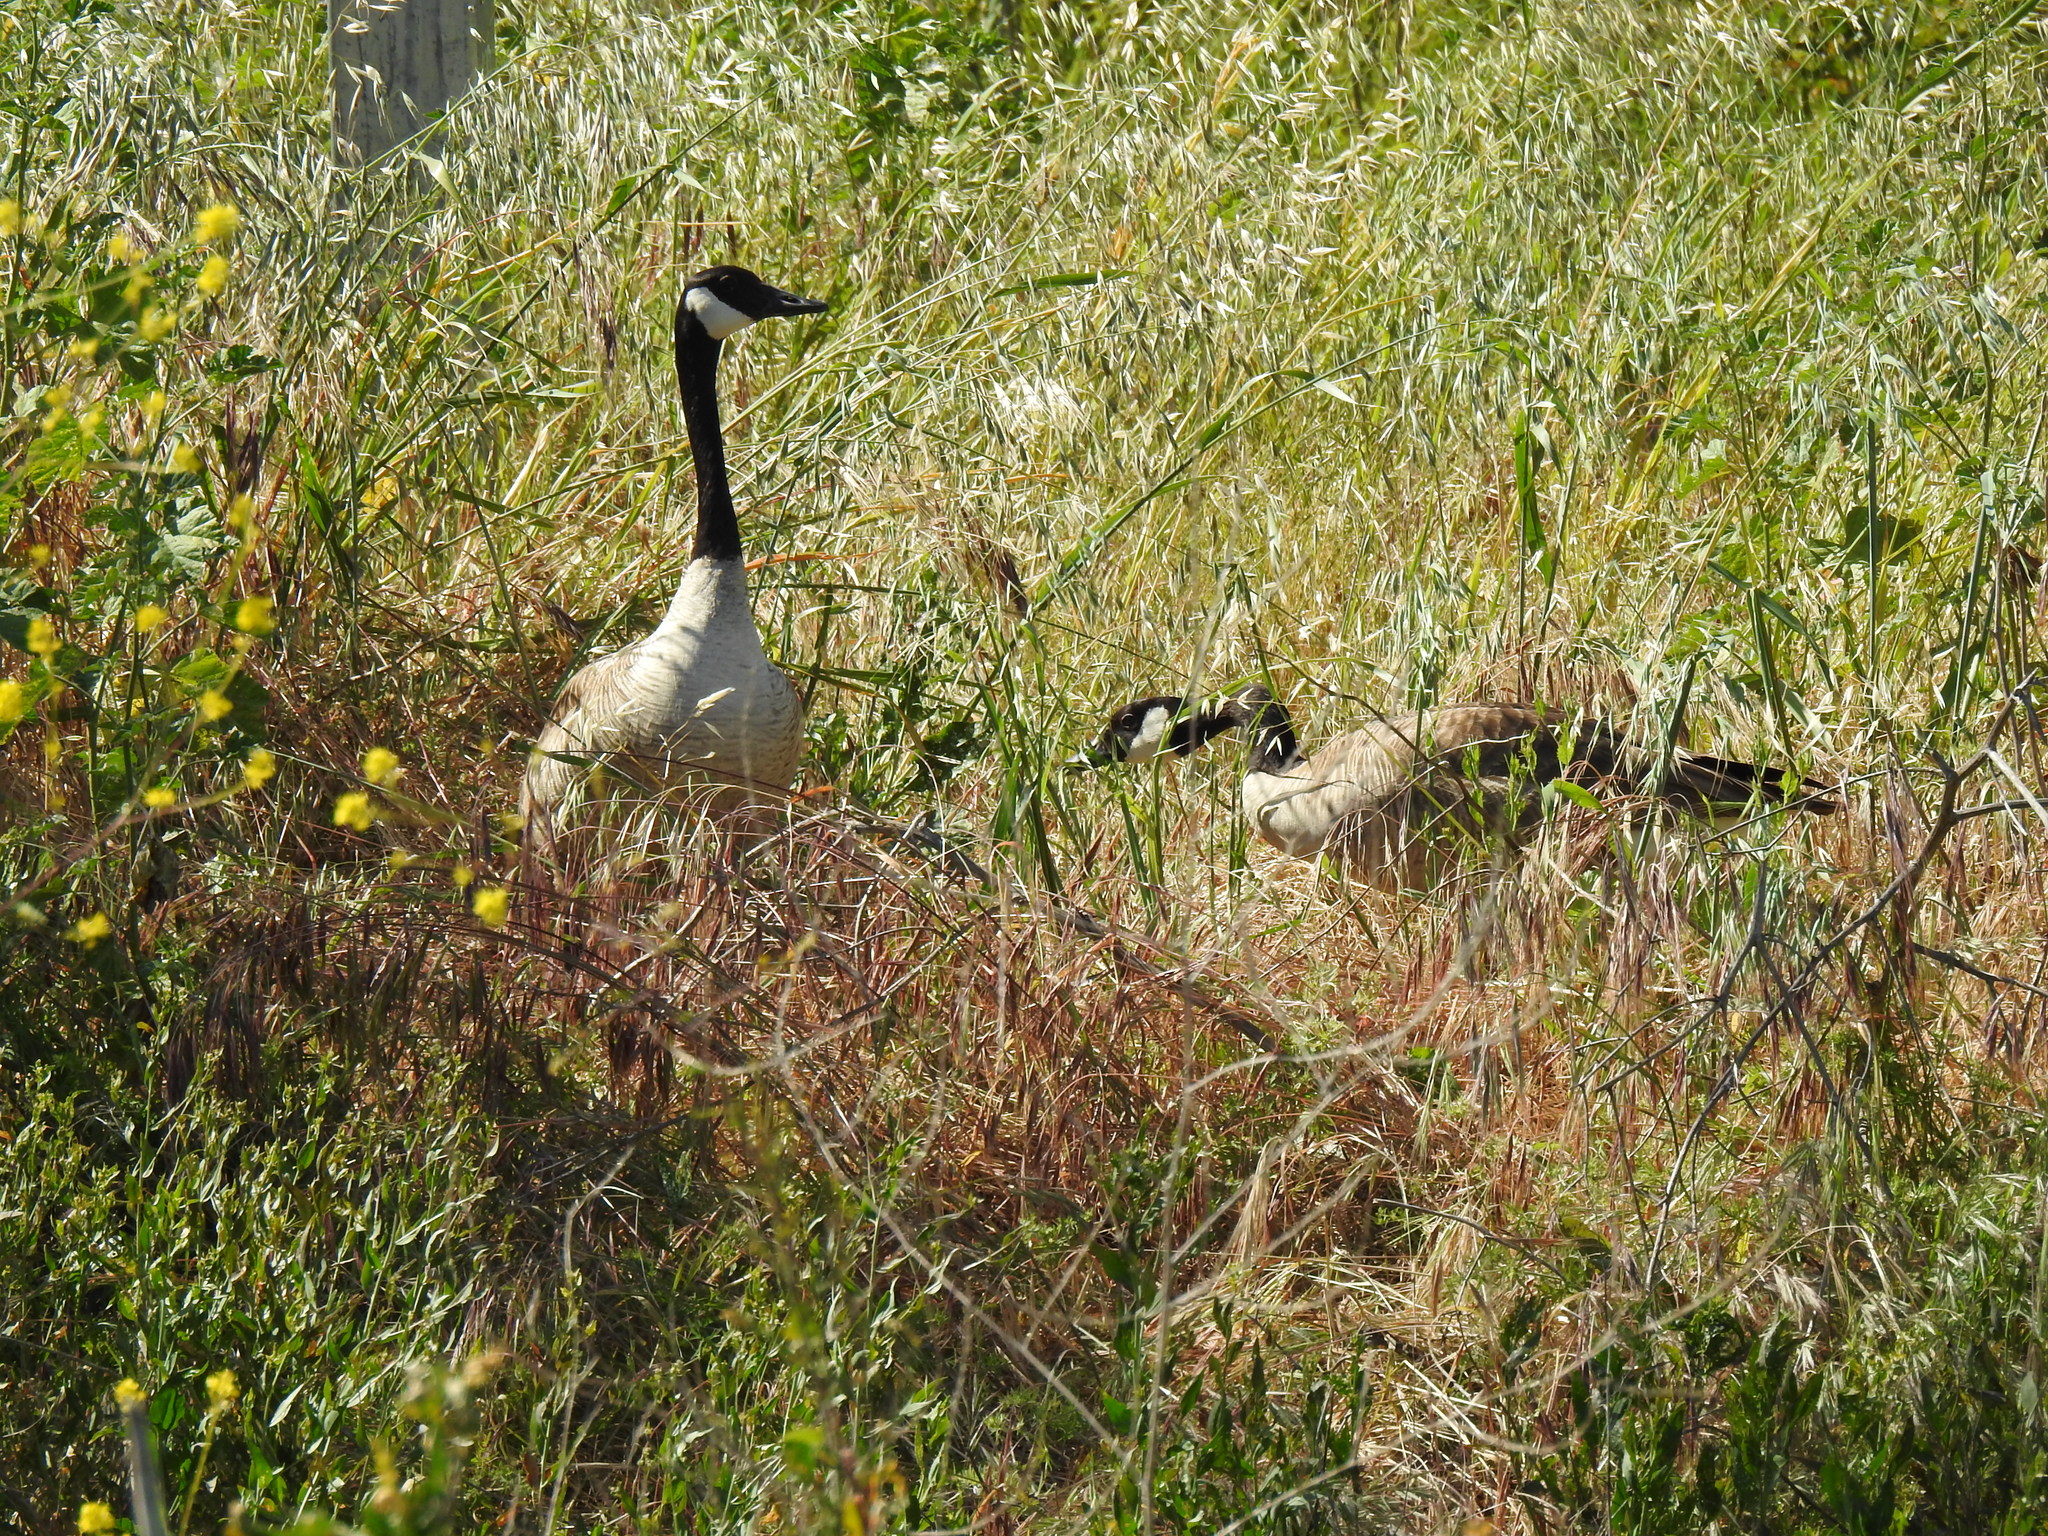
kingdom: Animalia
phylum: Chordata
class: Aves
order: Anseriformes
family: Anatidae
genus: Branta
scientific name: Branta canadensis
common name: Canada goose
